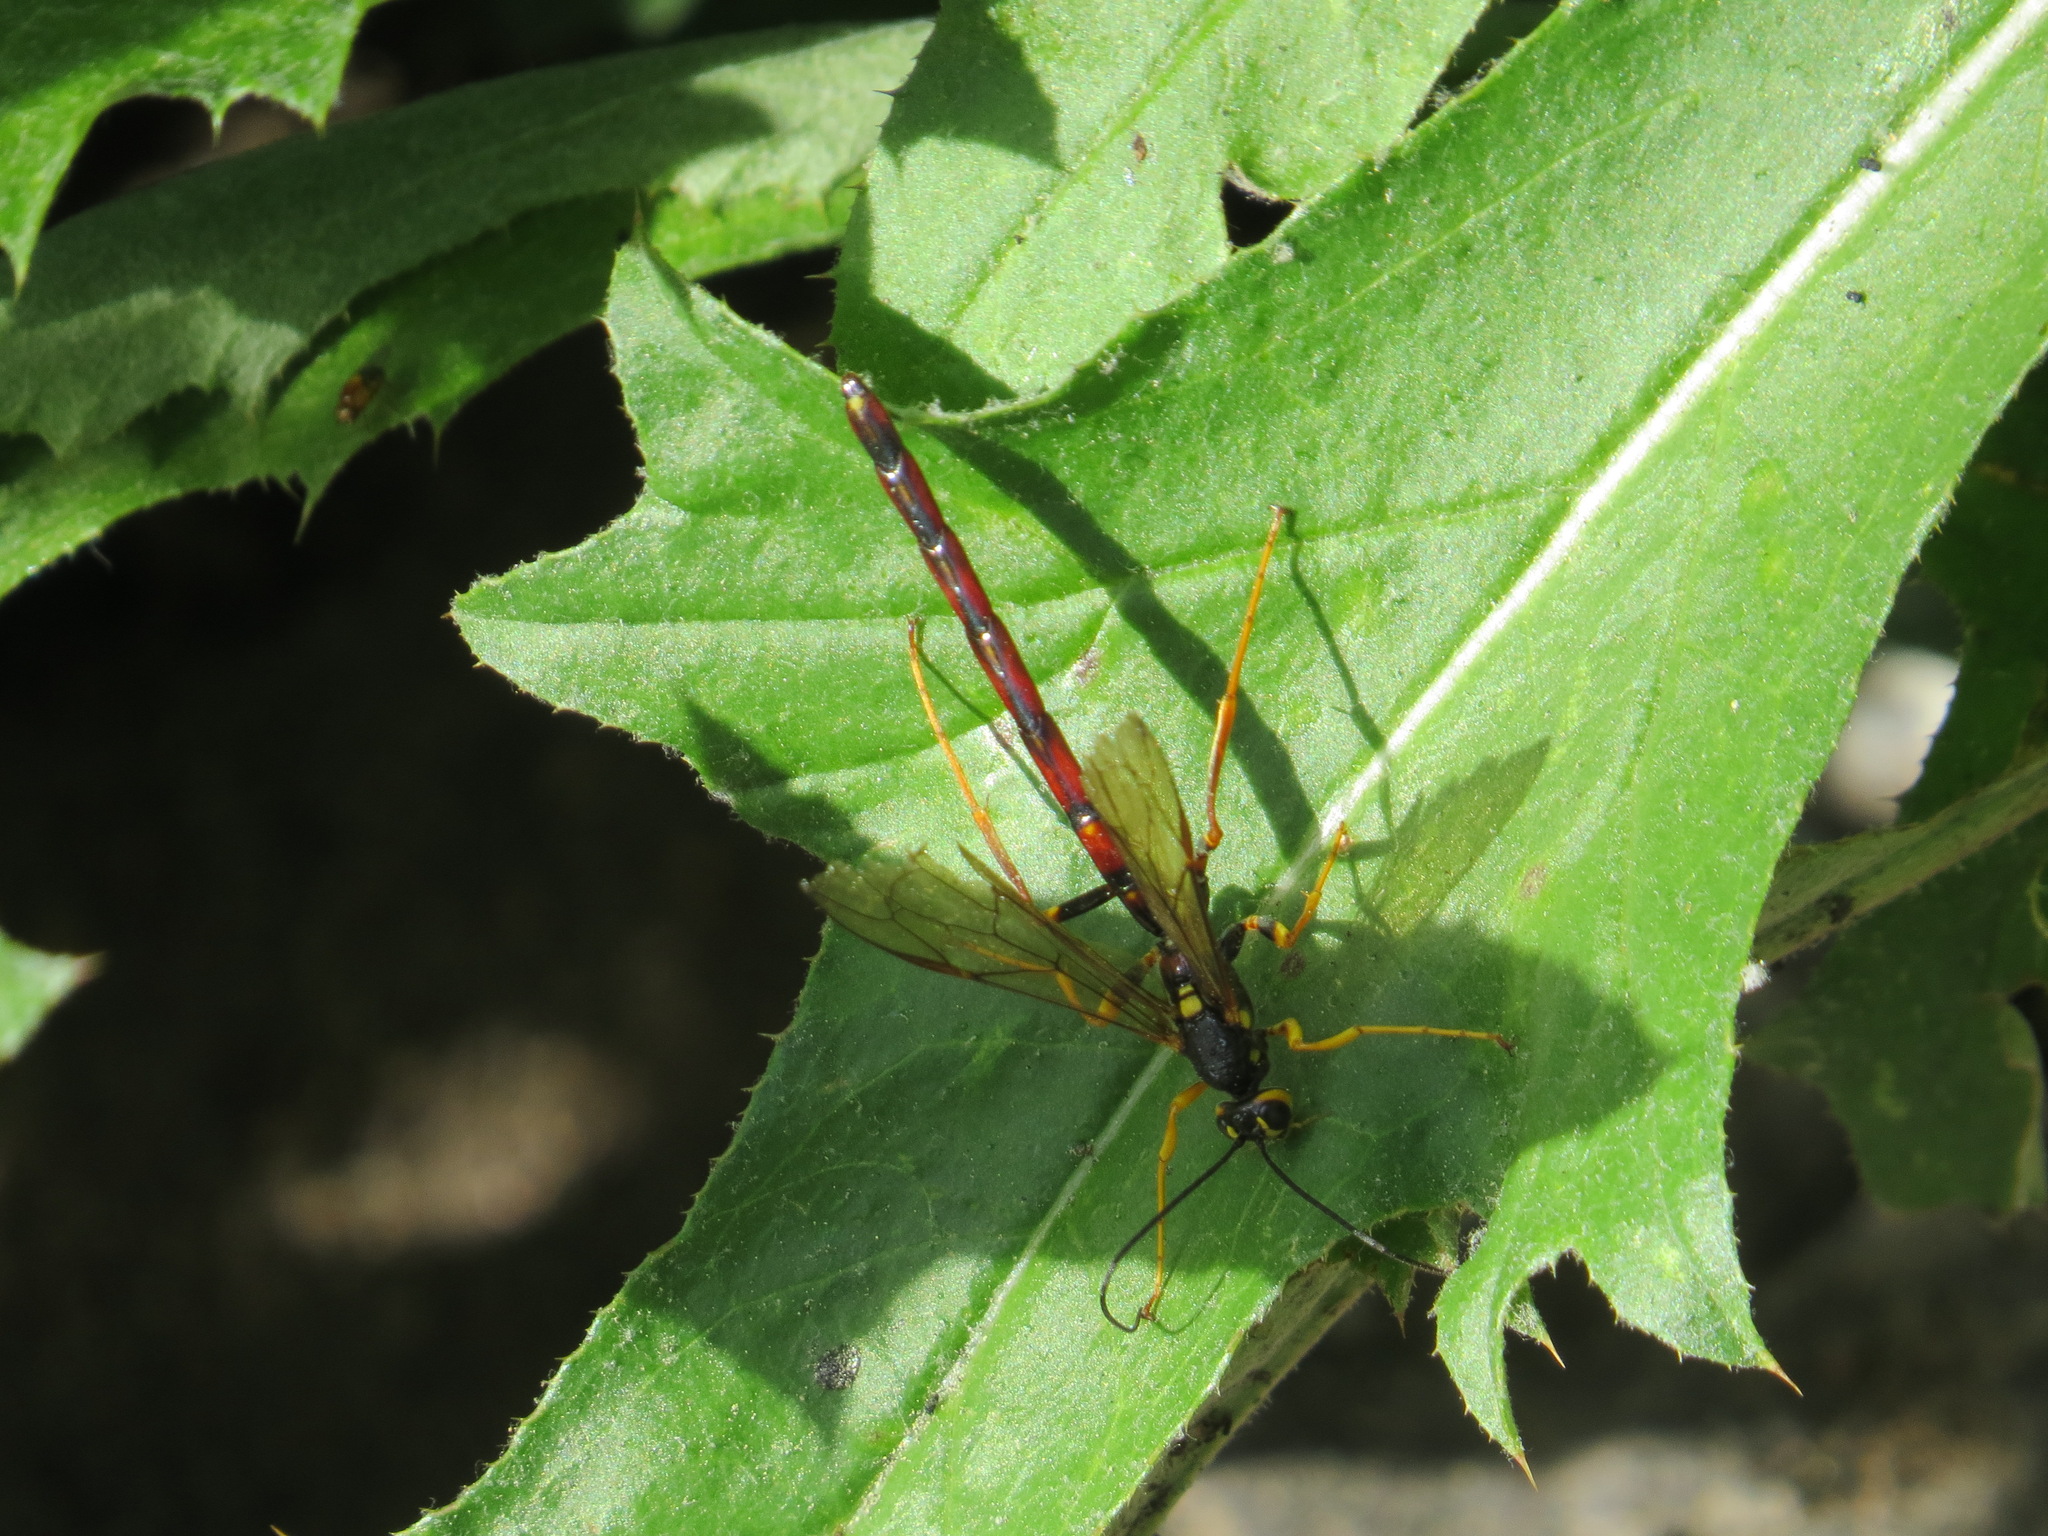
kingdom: Animalia
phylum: Arthropoda
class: Insecta
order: Hymenoptera
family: Ichneumonidae
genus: Megarhyssa
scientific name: Megarhyssa nortoni
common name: Norton's giant ichneumonid wasp
